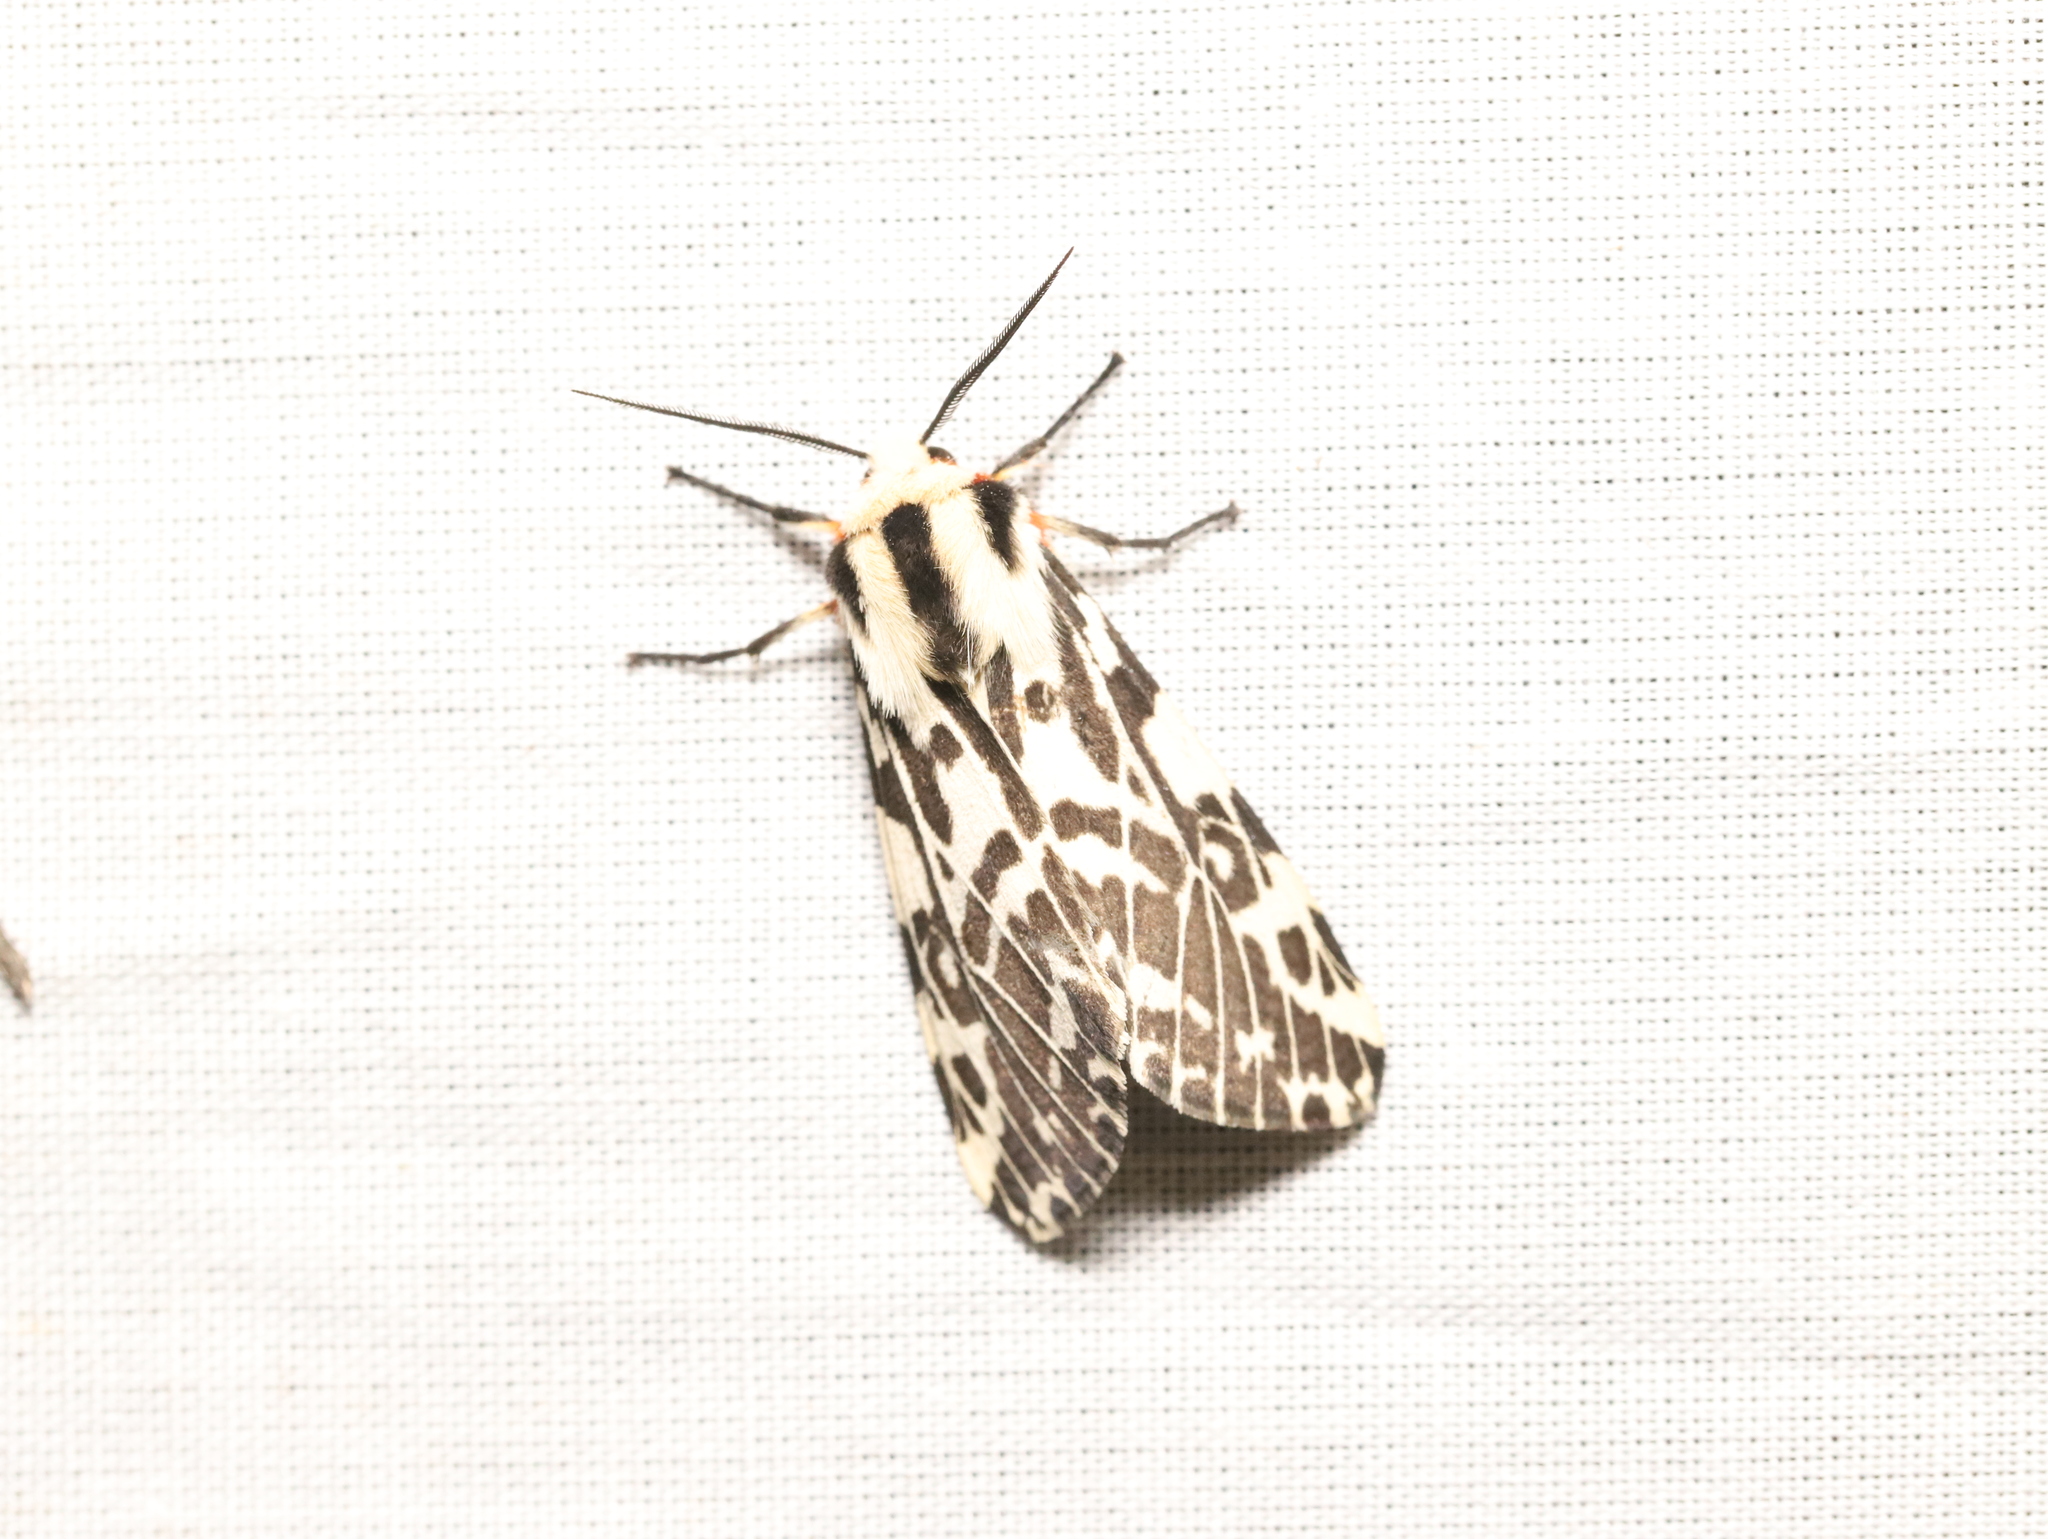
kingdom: Animalia
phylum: Arthropoda
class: Insecta
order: Lepidoptera
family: Erebidae
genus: Ardices
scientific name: Ardices glatignyi
